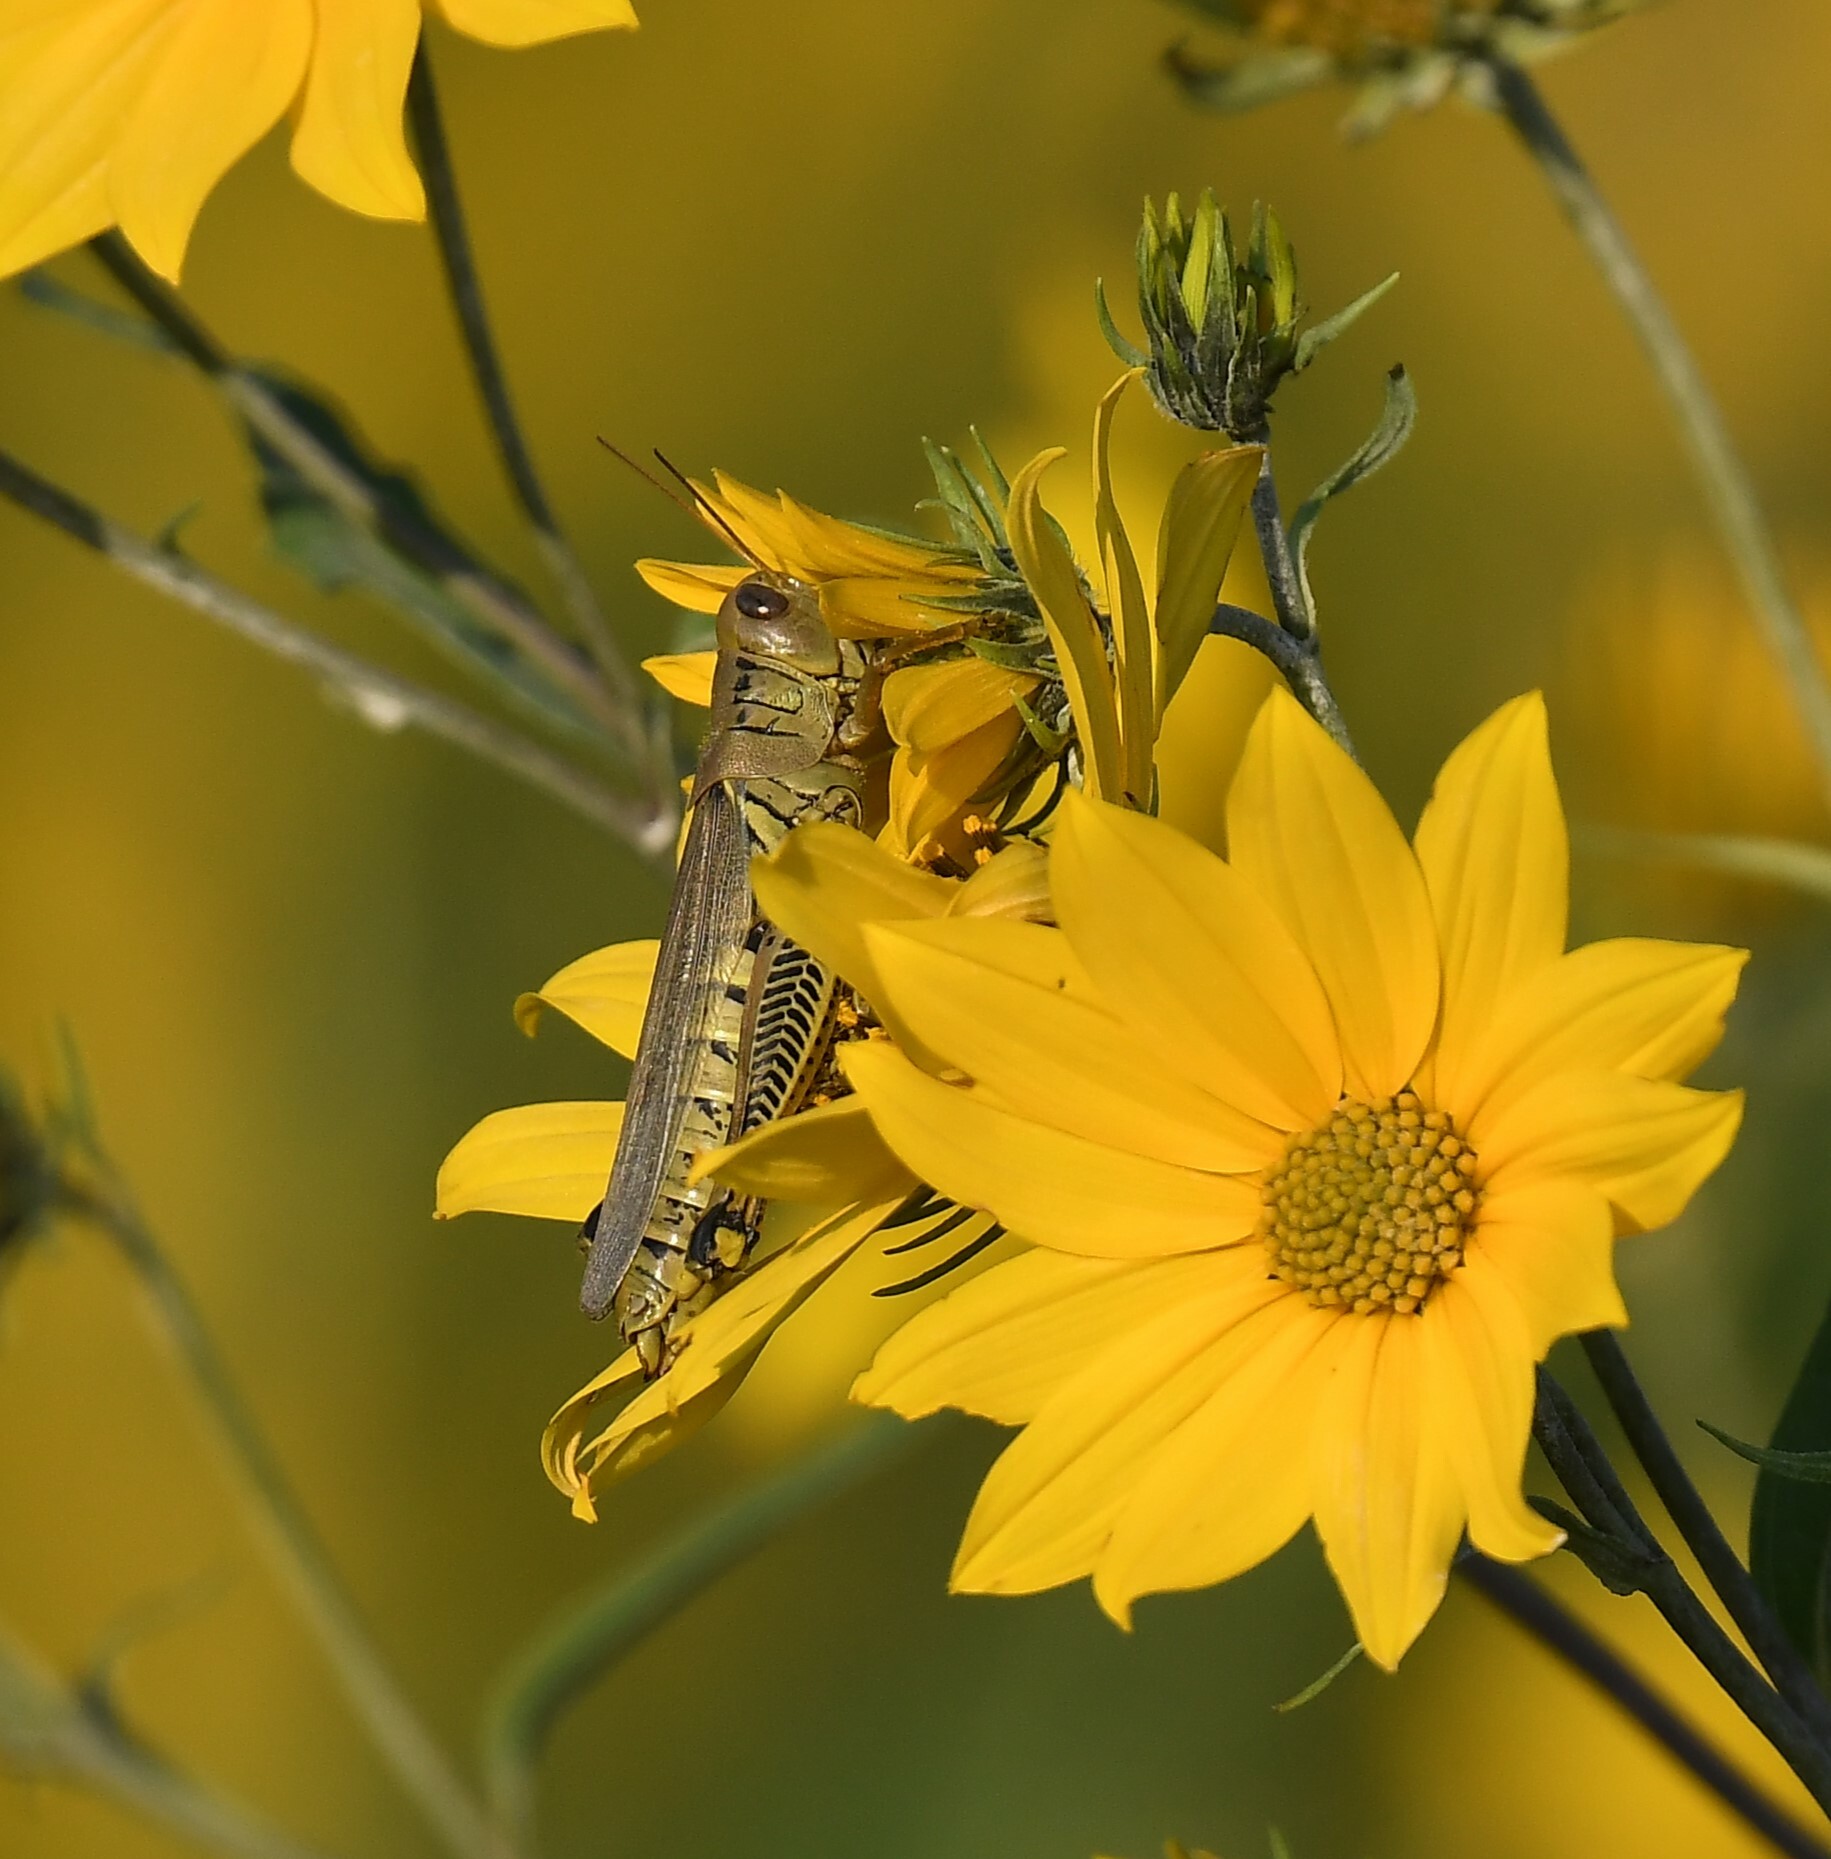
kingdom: Animalia
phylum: Arthropoda
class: Insecta
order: Orthoptera
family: Acrididae
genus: Melanoplus
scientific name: Melanoplus differentialis
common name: Differential grasshopper
